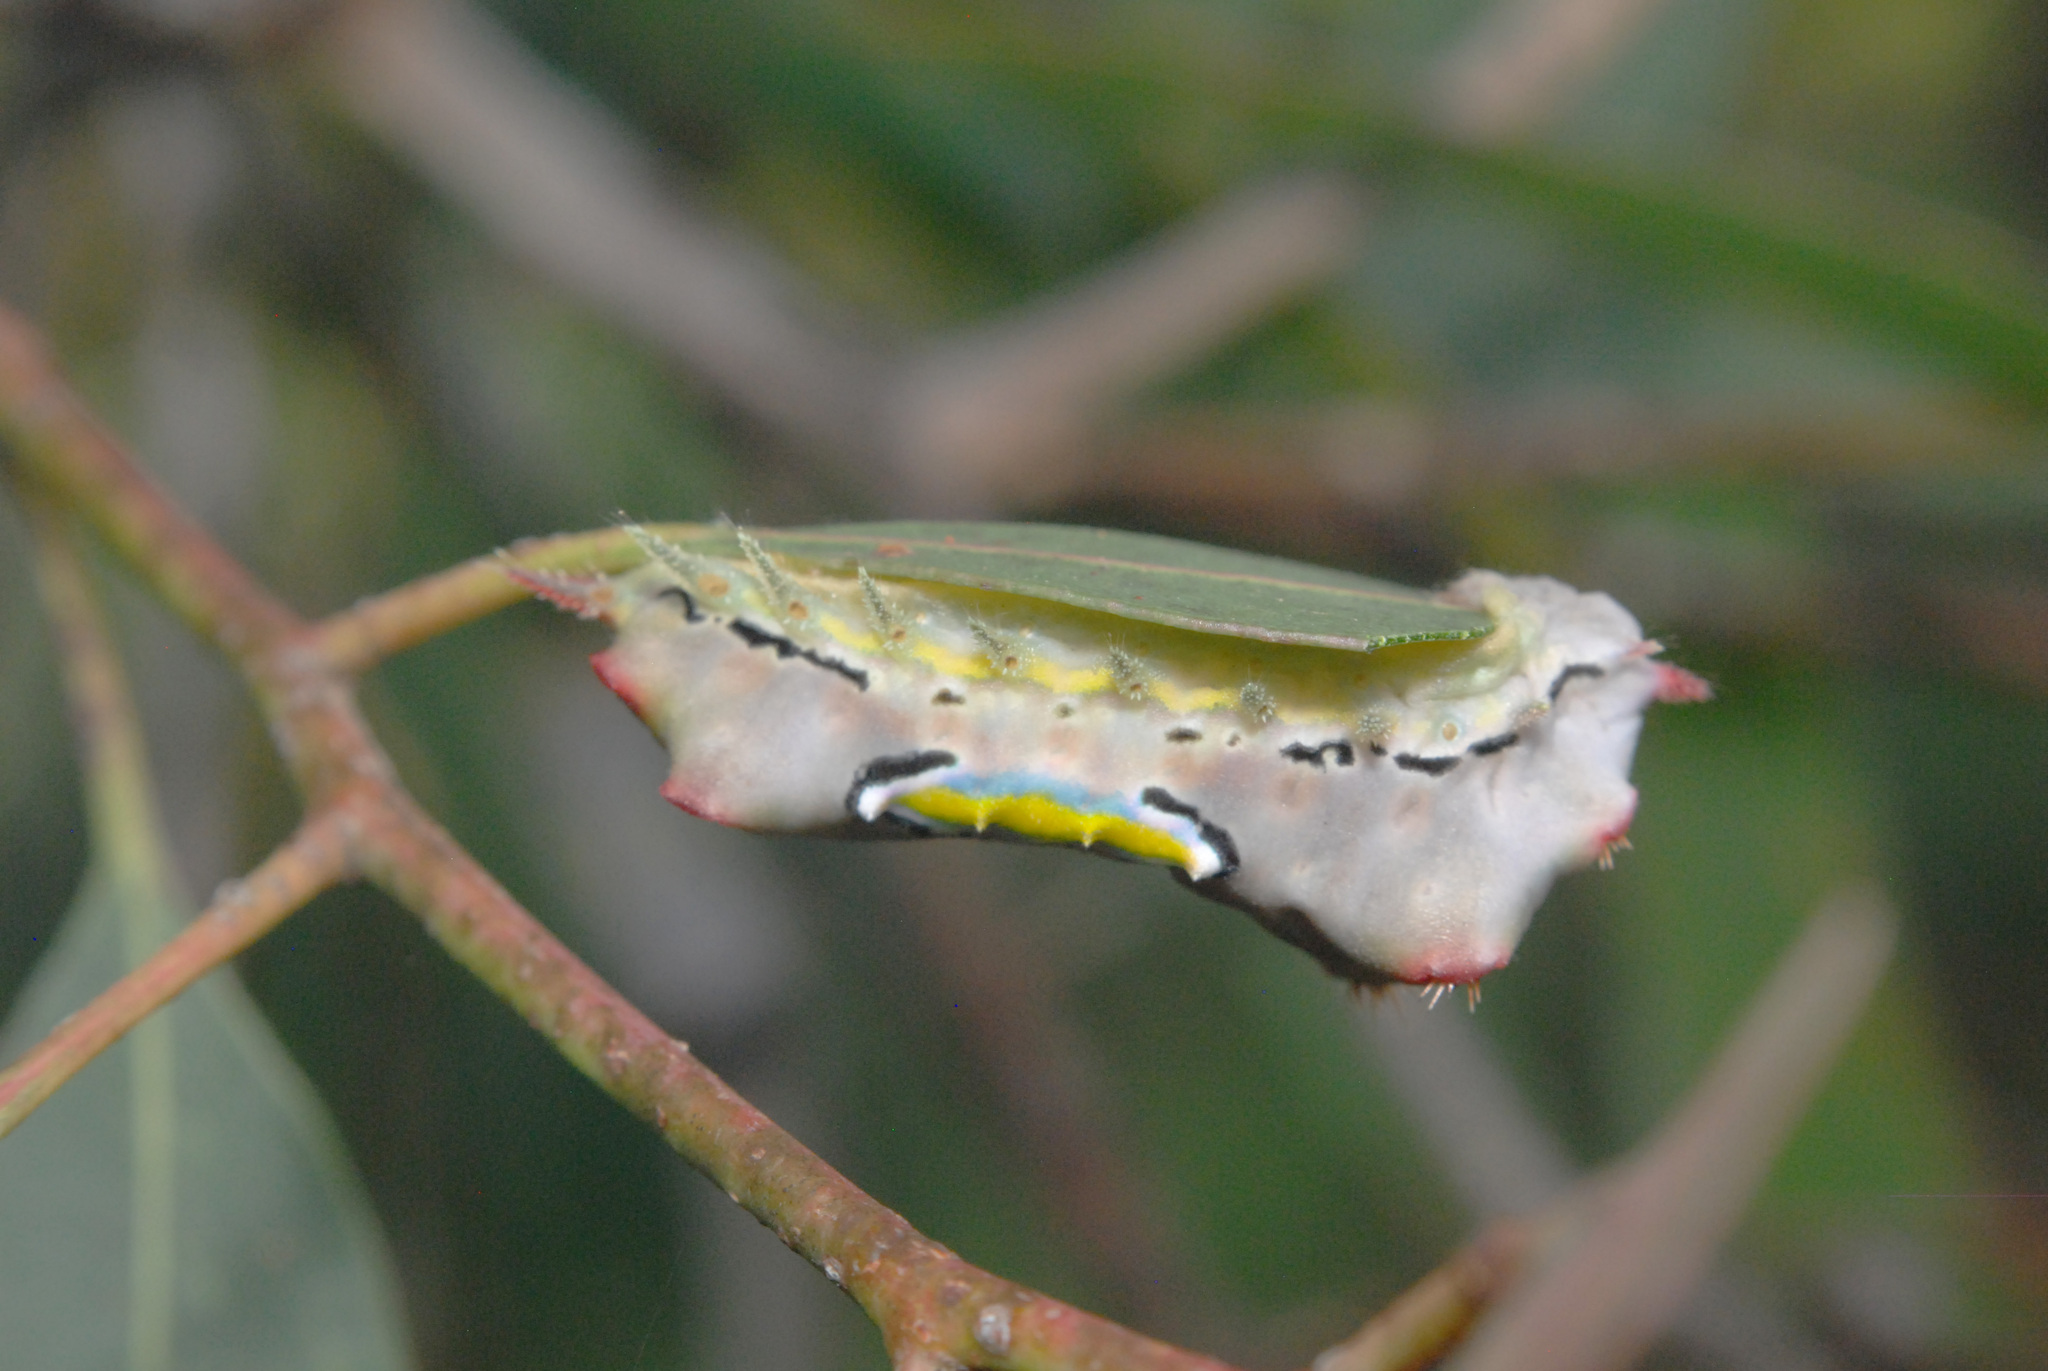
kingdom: Animalia
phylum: Arthropoda
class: Insecta
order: Lepidoptera
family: Limacodidae
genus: Doratifera
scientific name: Doratifera vulnerans
